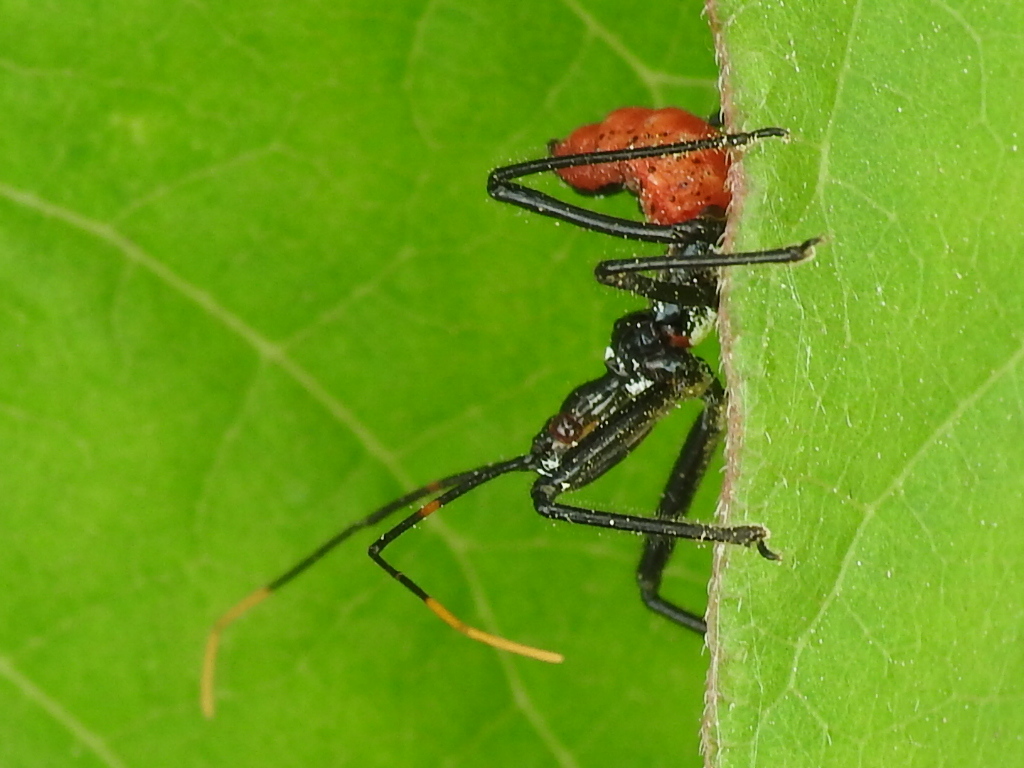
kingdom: Animalia
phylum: Arthropoda
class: Insecta
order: Hemiptera
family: Reduviidae
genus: Arilus
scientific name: Arilus cristatus
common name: North american wheel bug
